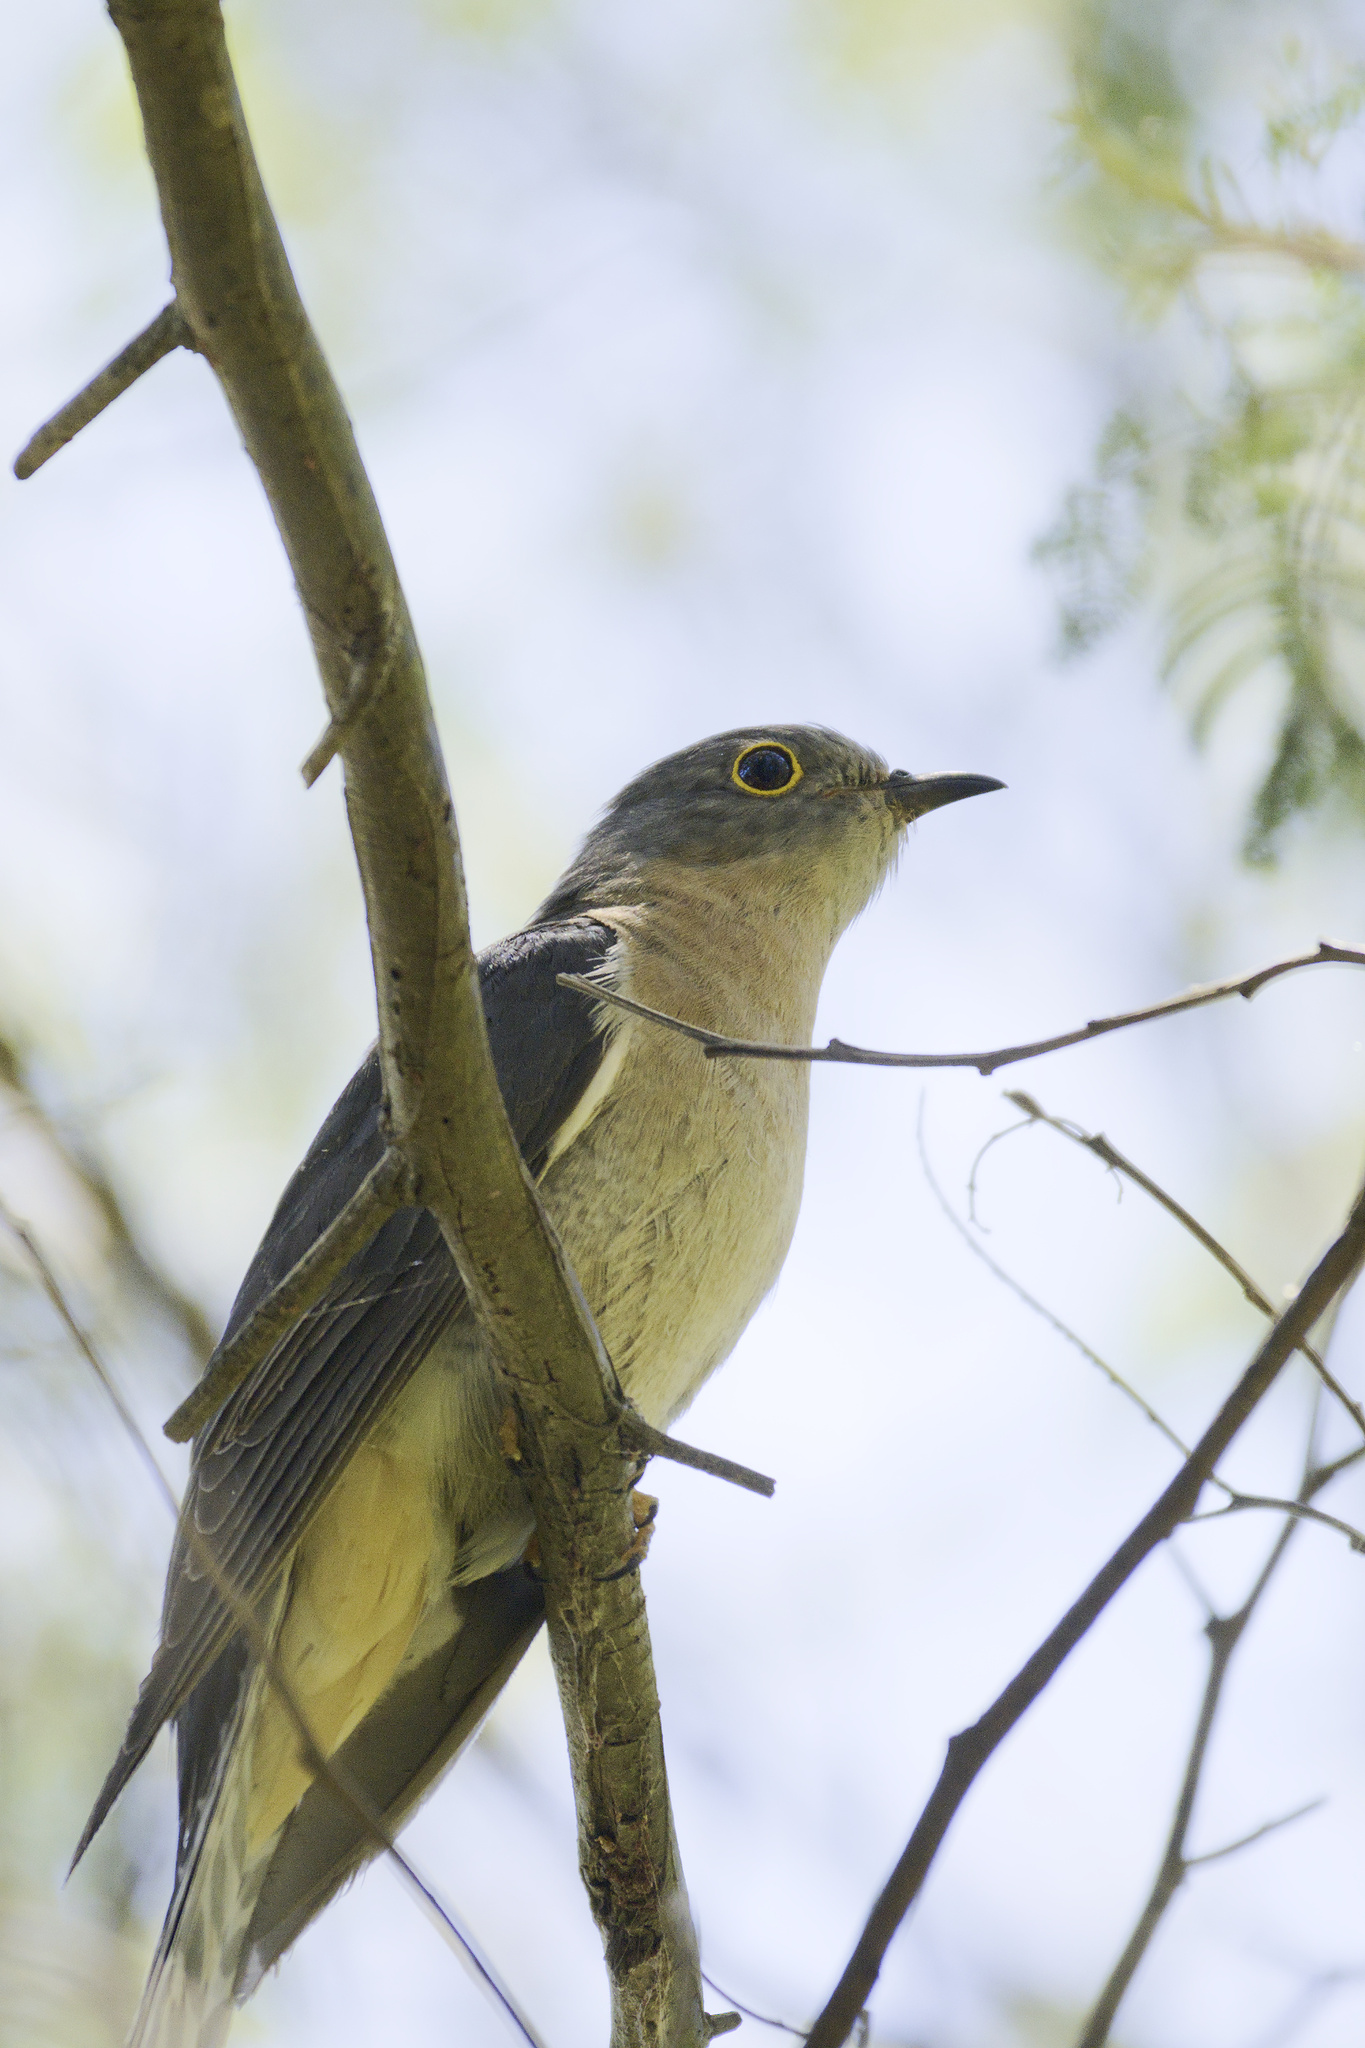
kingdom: Animalia
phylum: Chordata
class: Aves
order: Cuculiformes
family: Cuculidae
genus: Cacomantis
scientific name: Cacomantis flabelliformis
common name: Fan-tailed cuckoo
